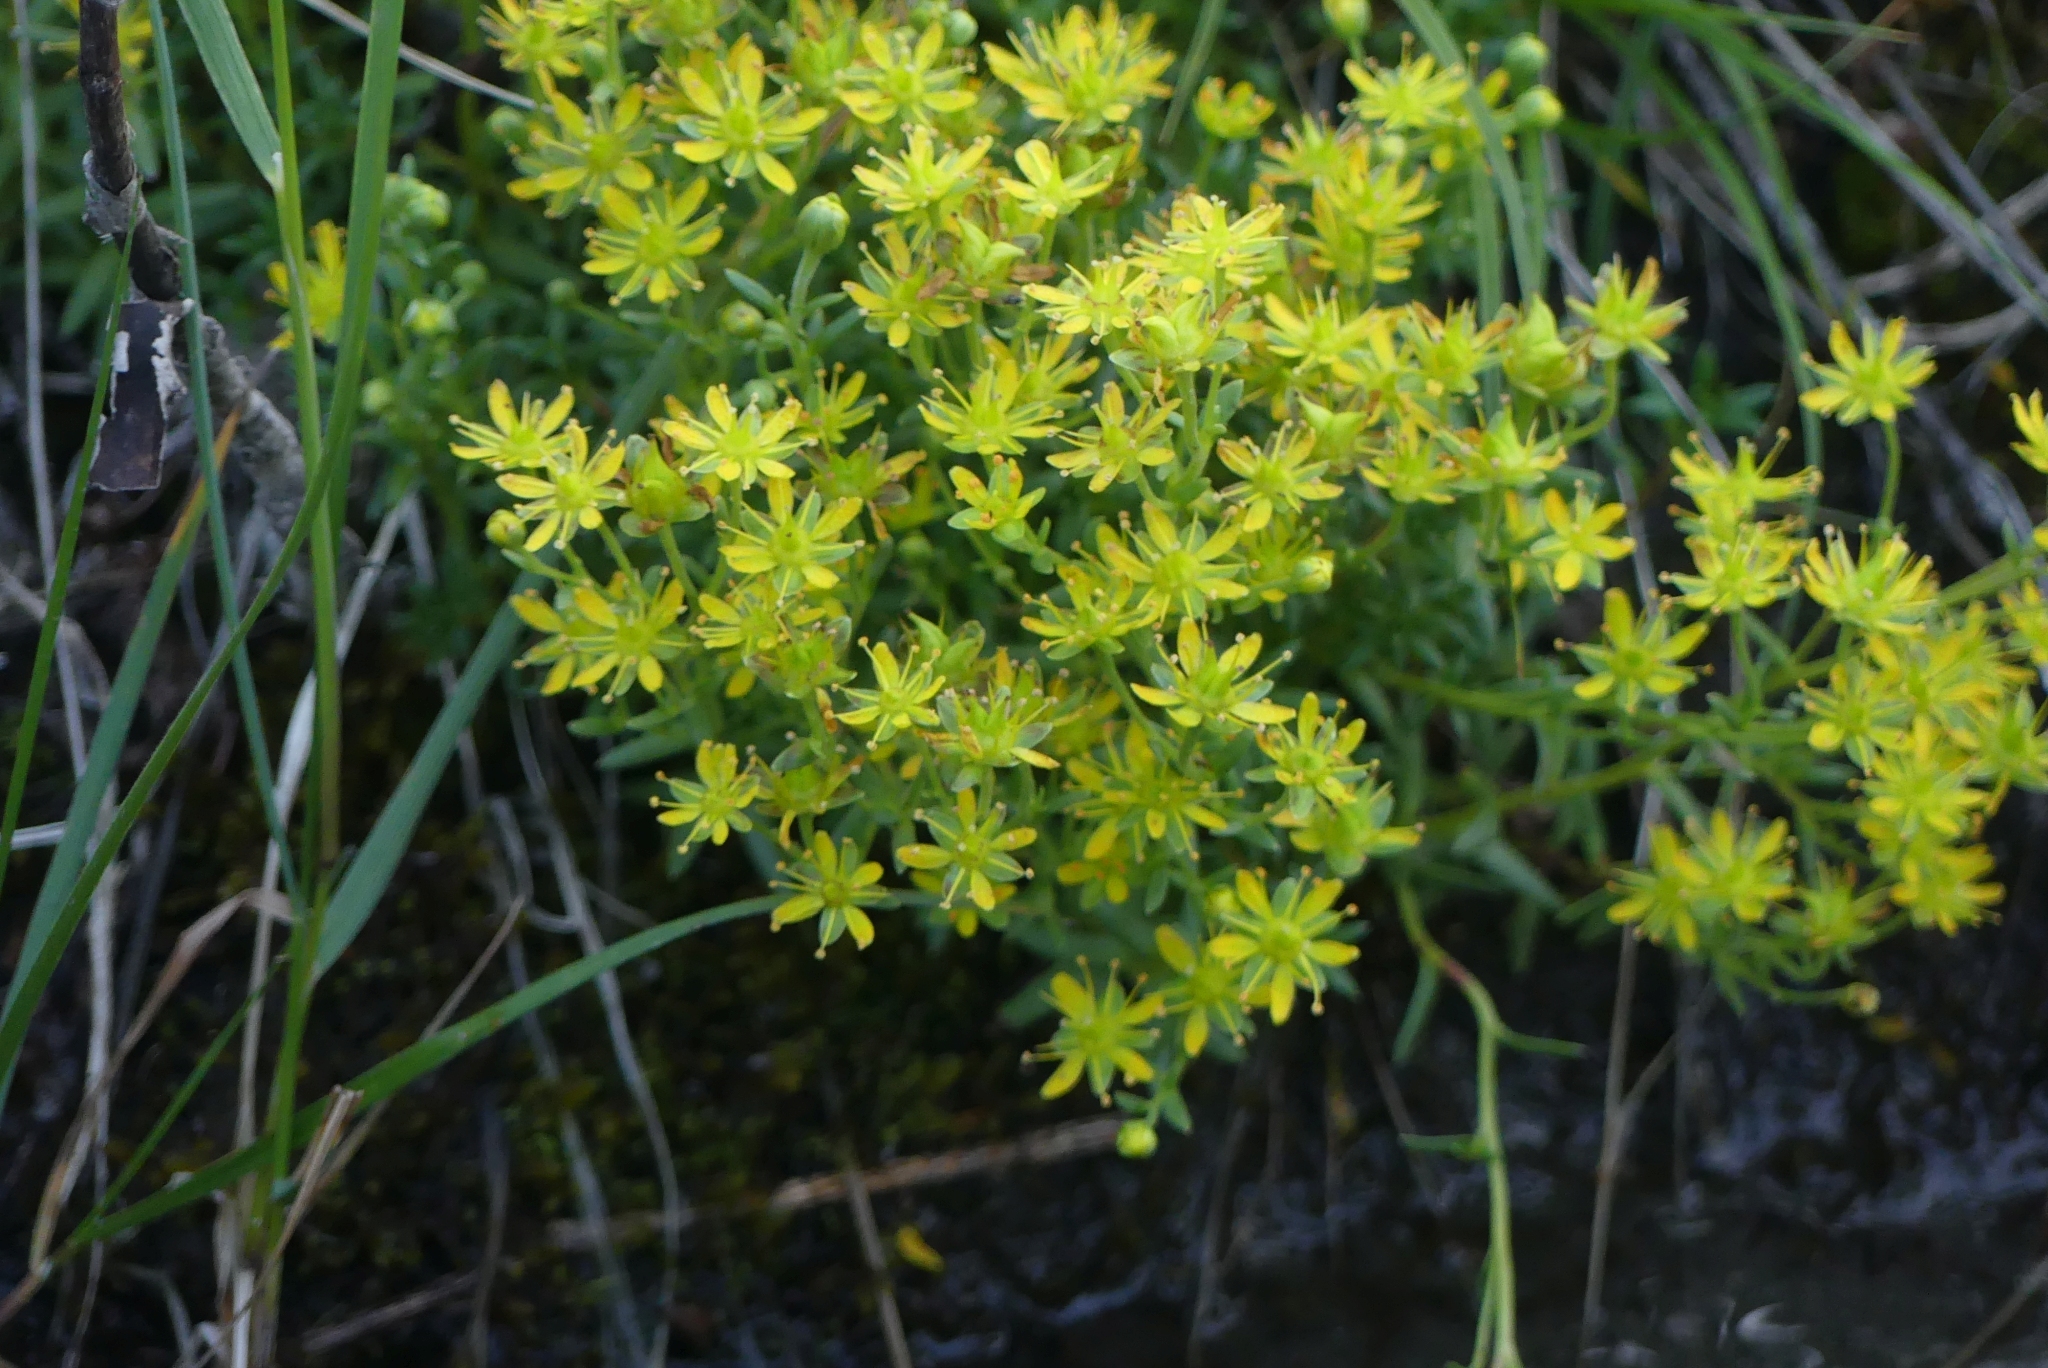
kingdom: Plantae
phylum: Tracheophyta
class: Magnoliopsida
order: Saxifragales
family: Saxifragaceae
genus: Saxifraga
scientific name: Saxifraga aizoides
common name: Yellow mountain saxifrage
